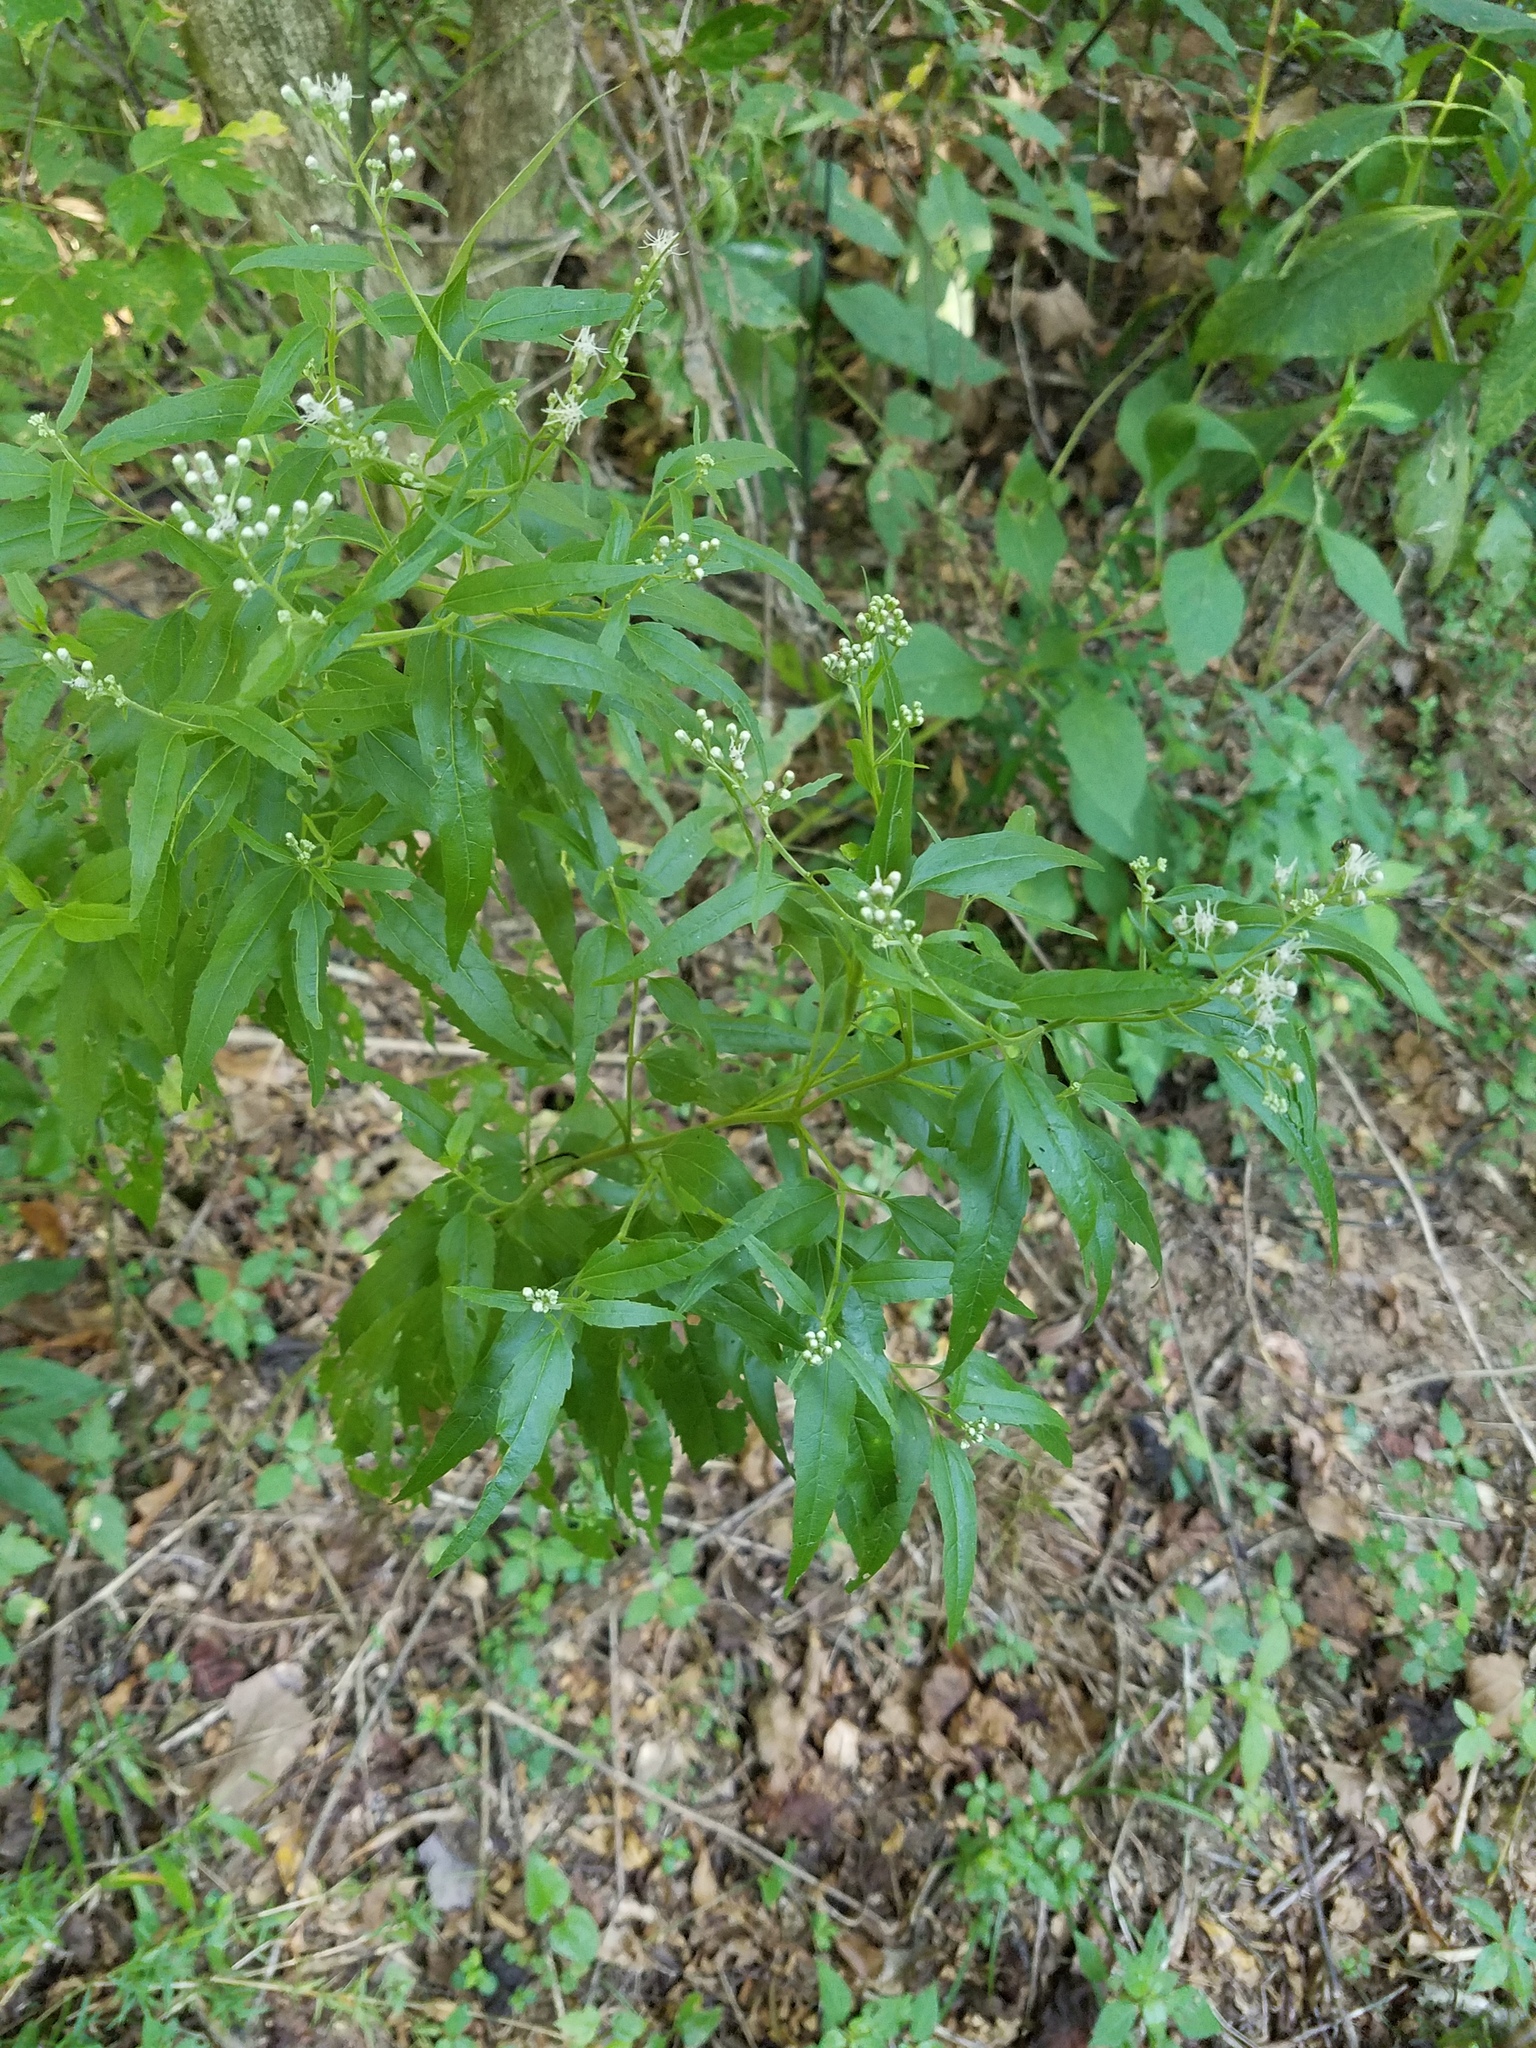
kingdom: Plantae
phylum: Tracheophyta
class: Magnoliopsida
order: Asterales
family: Asteraceae
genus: Eupatorium
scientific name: Eupatorium serotinum
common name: Late boneset
